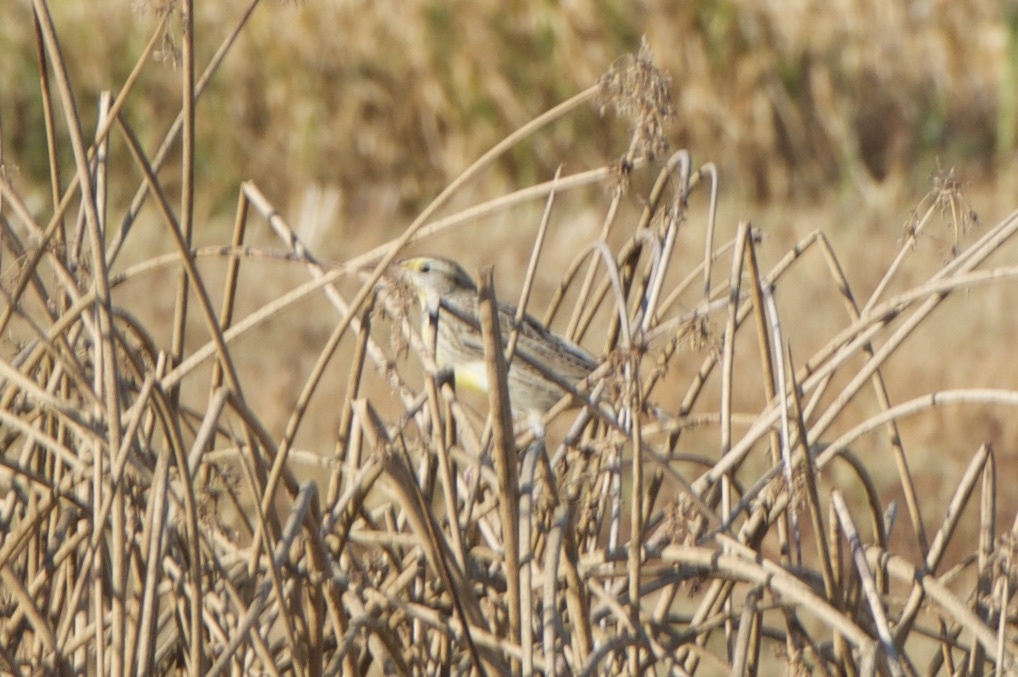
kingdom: Animalia
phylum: Chordata
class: Aves
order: Passeriformes
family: Icteridae
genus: Sturnella
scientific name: Sturnella neglecta
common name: Western meadowlark
